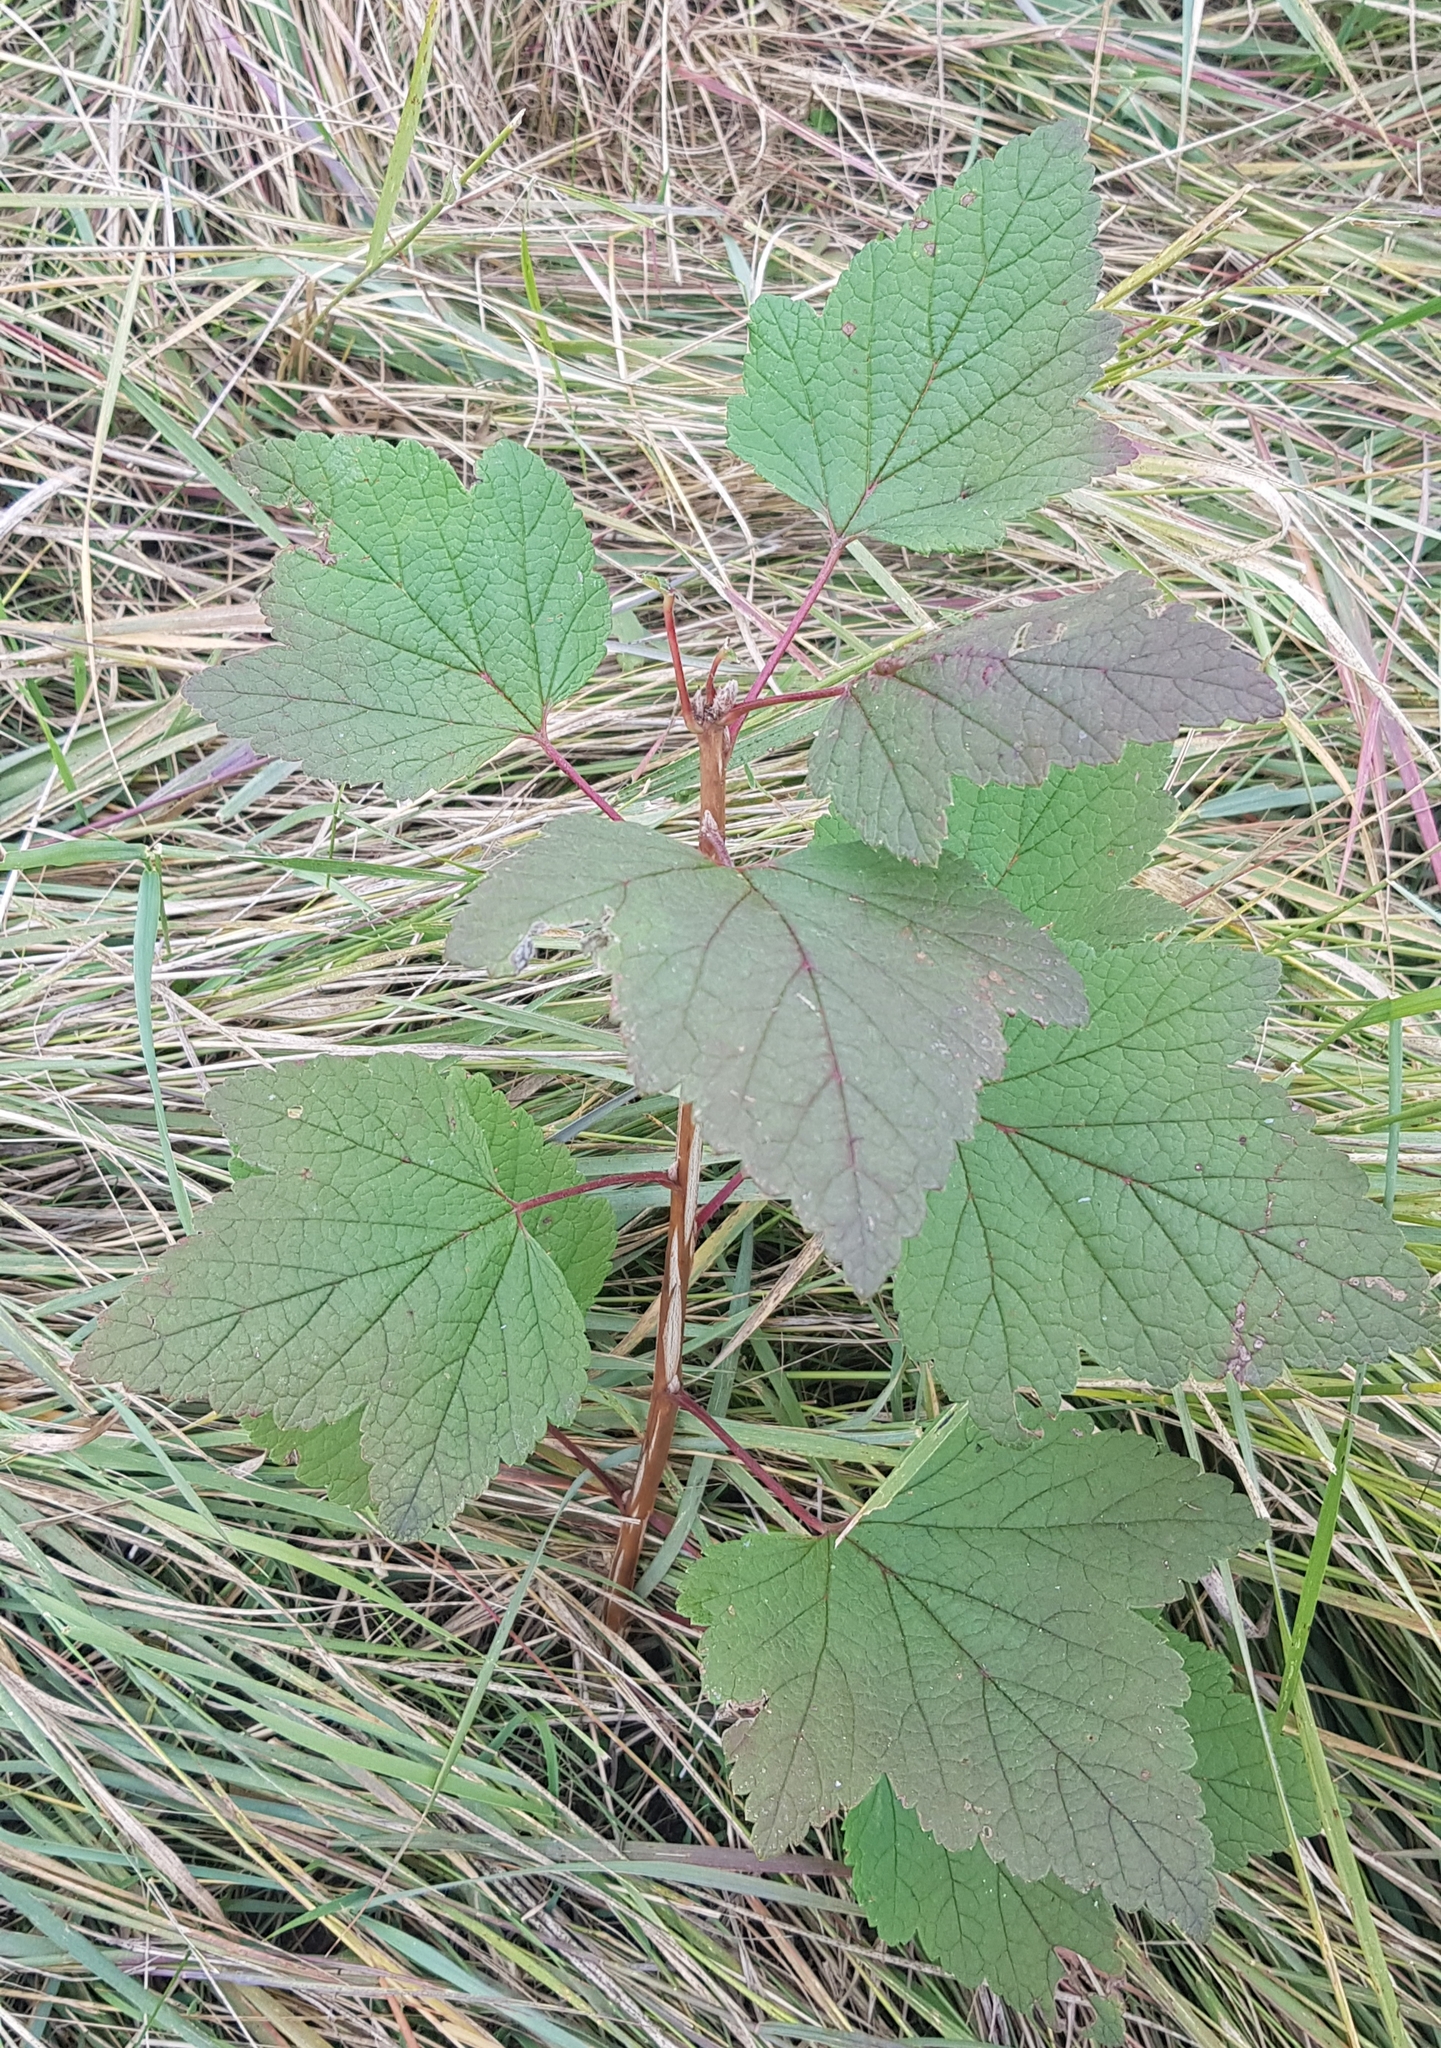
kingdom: Plantae
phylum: Tracheophyta
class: Magnoliopsida
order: Saxifragales
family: Grossulariaceae
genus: Ribes
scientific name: Ribes nigrum
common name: Black currant
